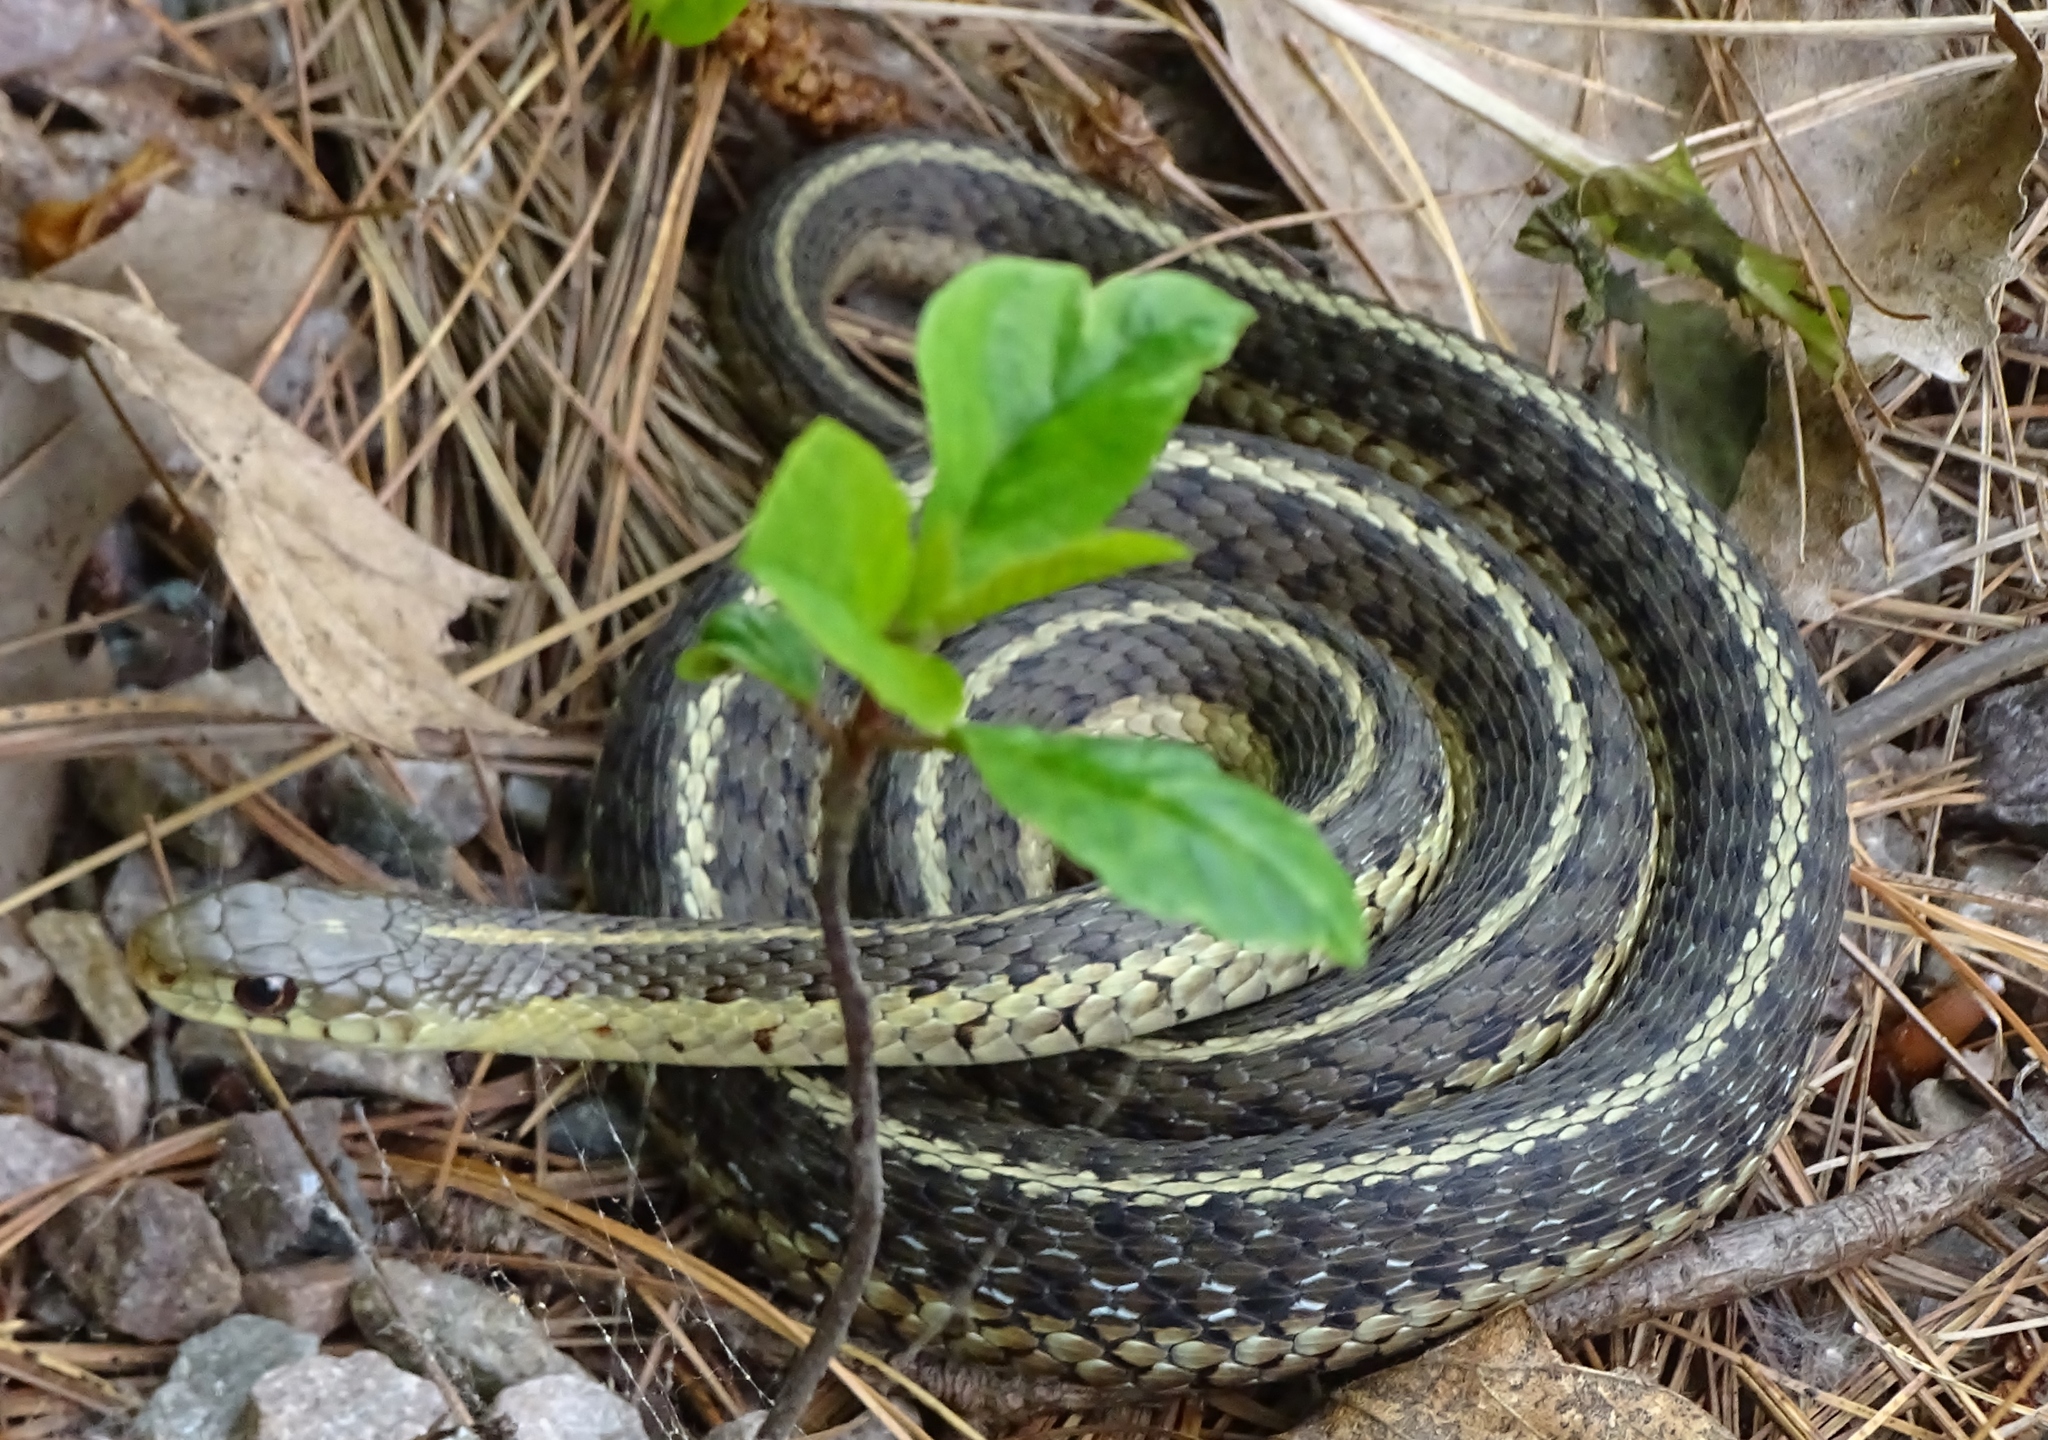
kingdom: Animalia
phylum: Chordata
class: Squamata
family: Colubridae
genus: Thamnophis
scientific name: Thamnophis sirtalis
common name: Common garter snake
